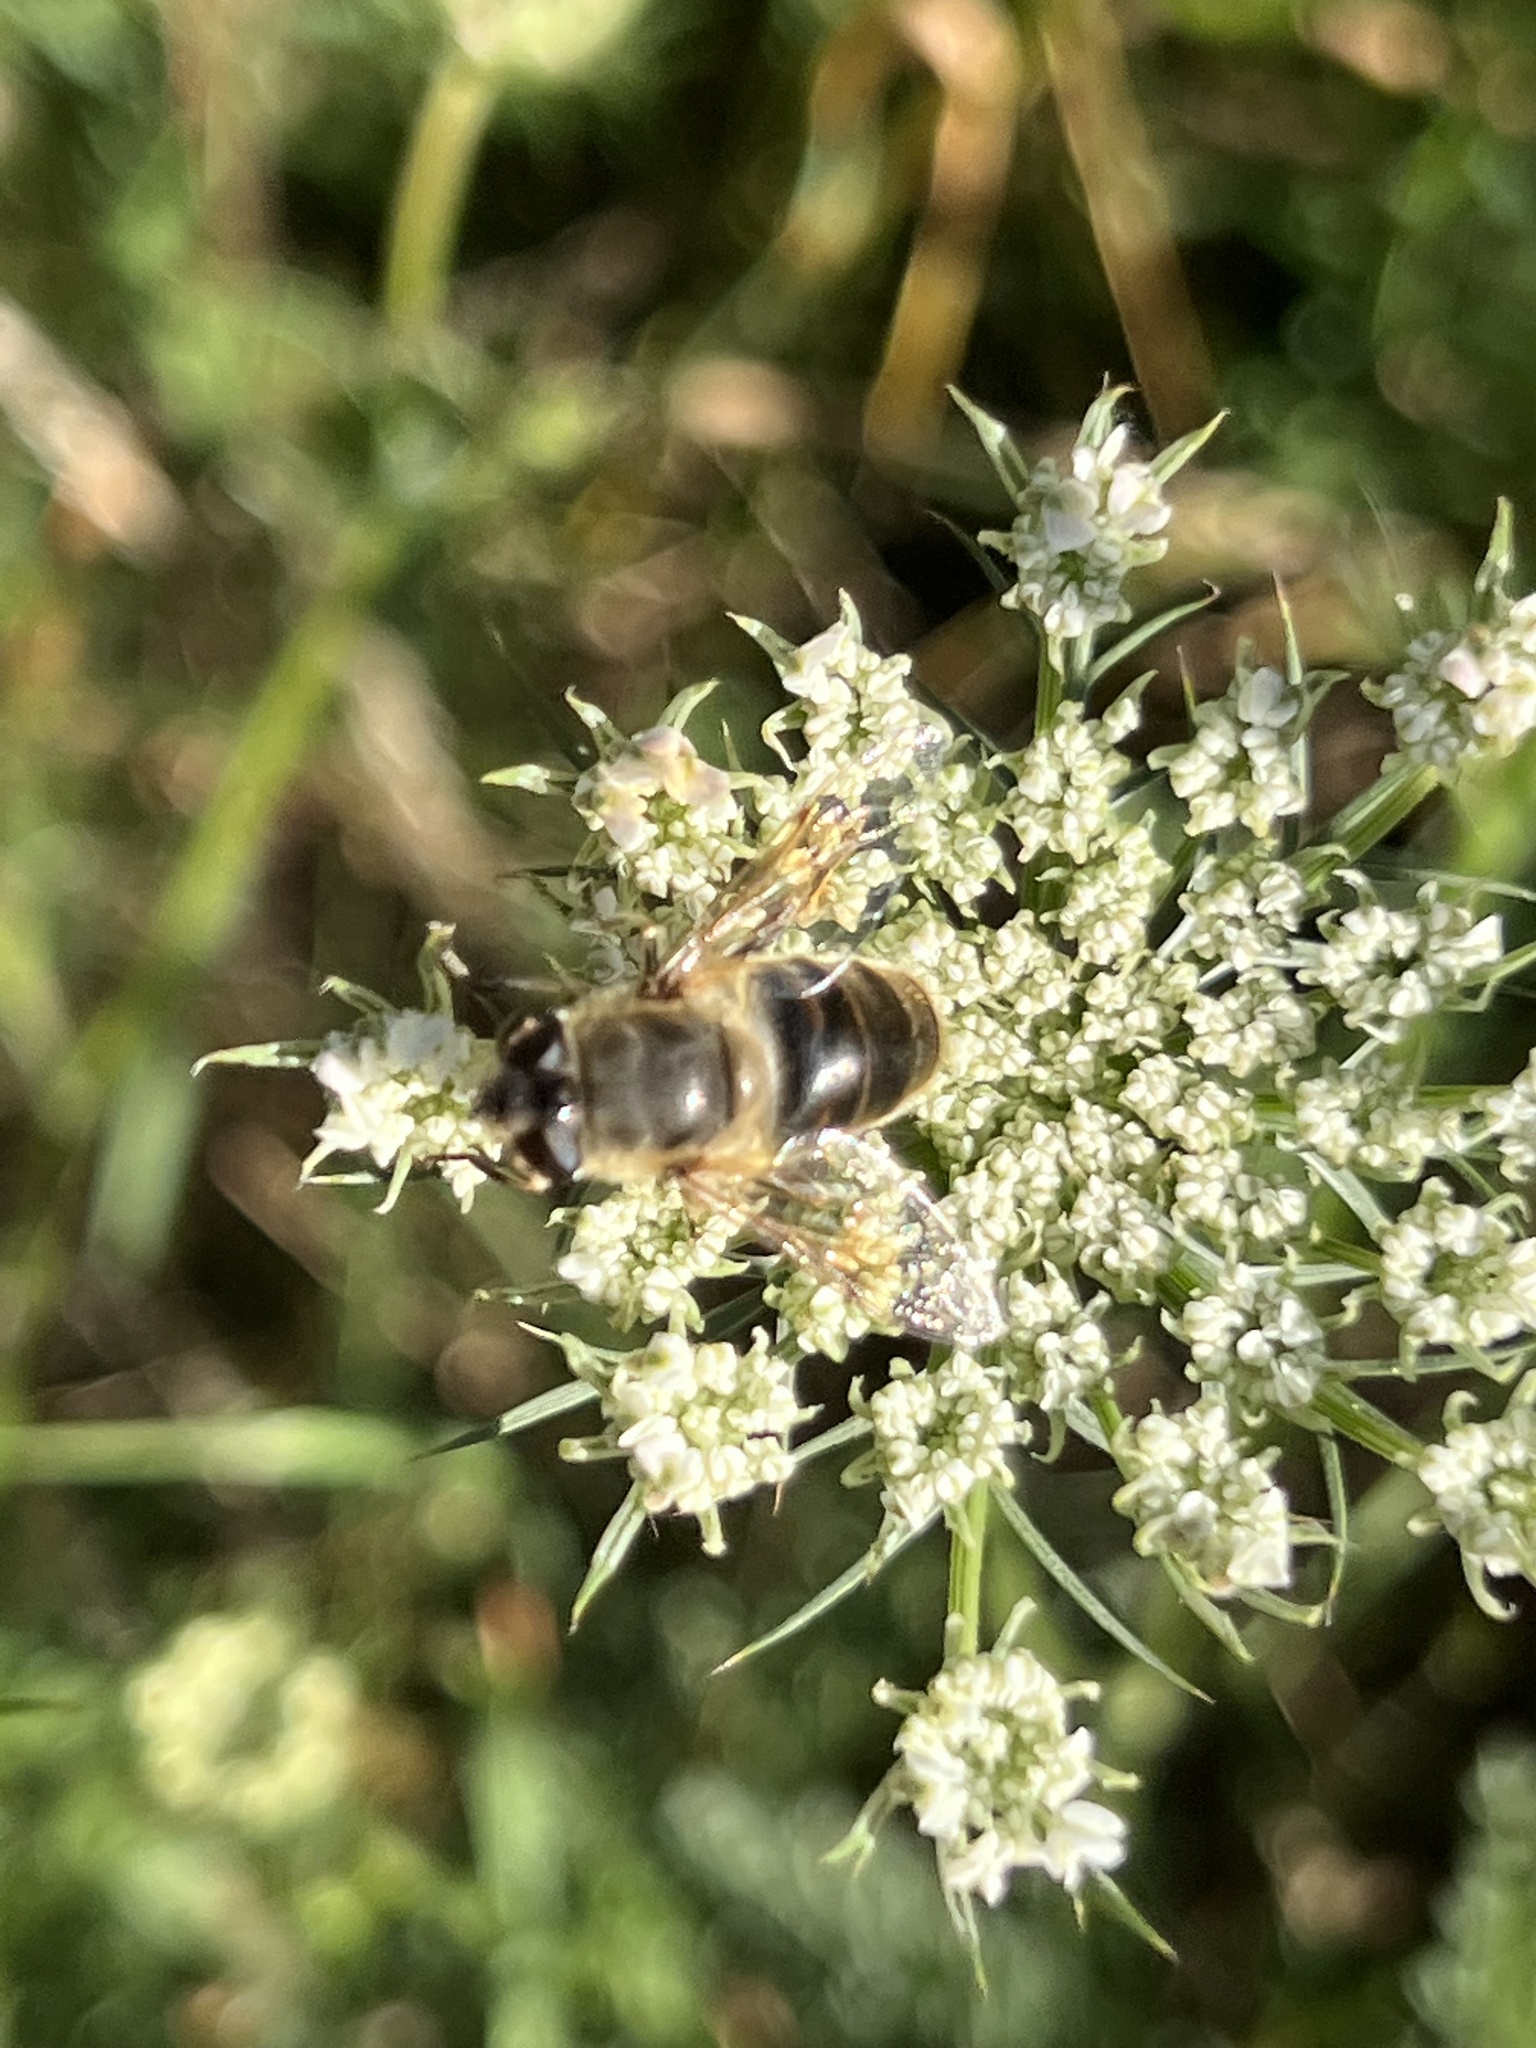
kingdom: Animalia
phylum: Arthropoda
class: Insecta
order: Diptera
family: Syrphidae
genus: Eristalis
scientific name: Eristalis tenax
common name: Drone fly
